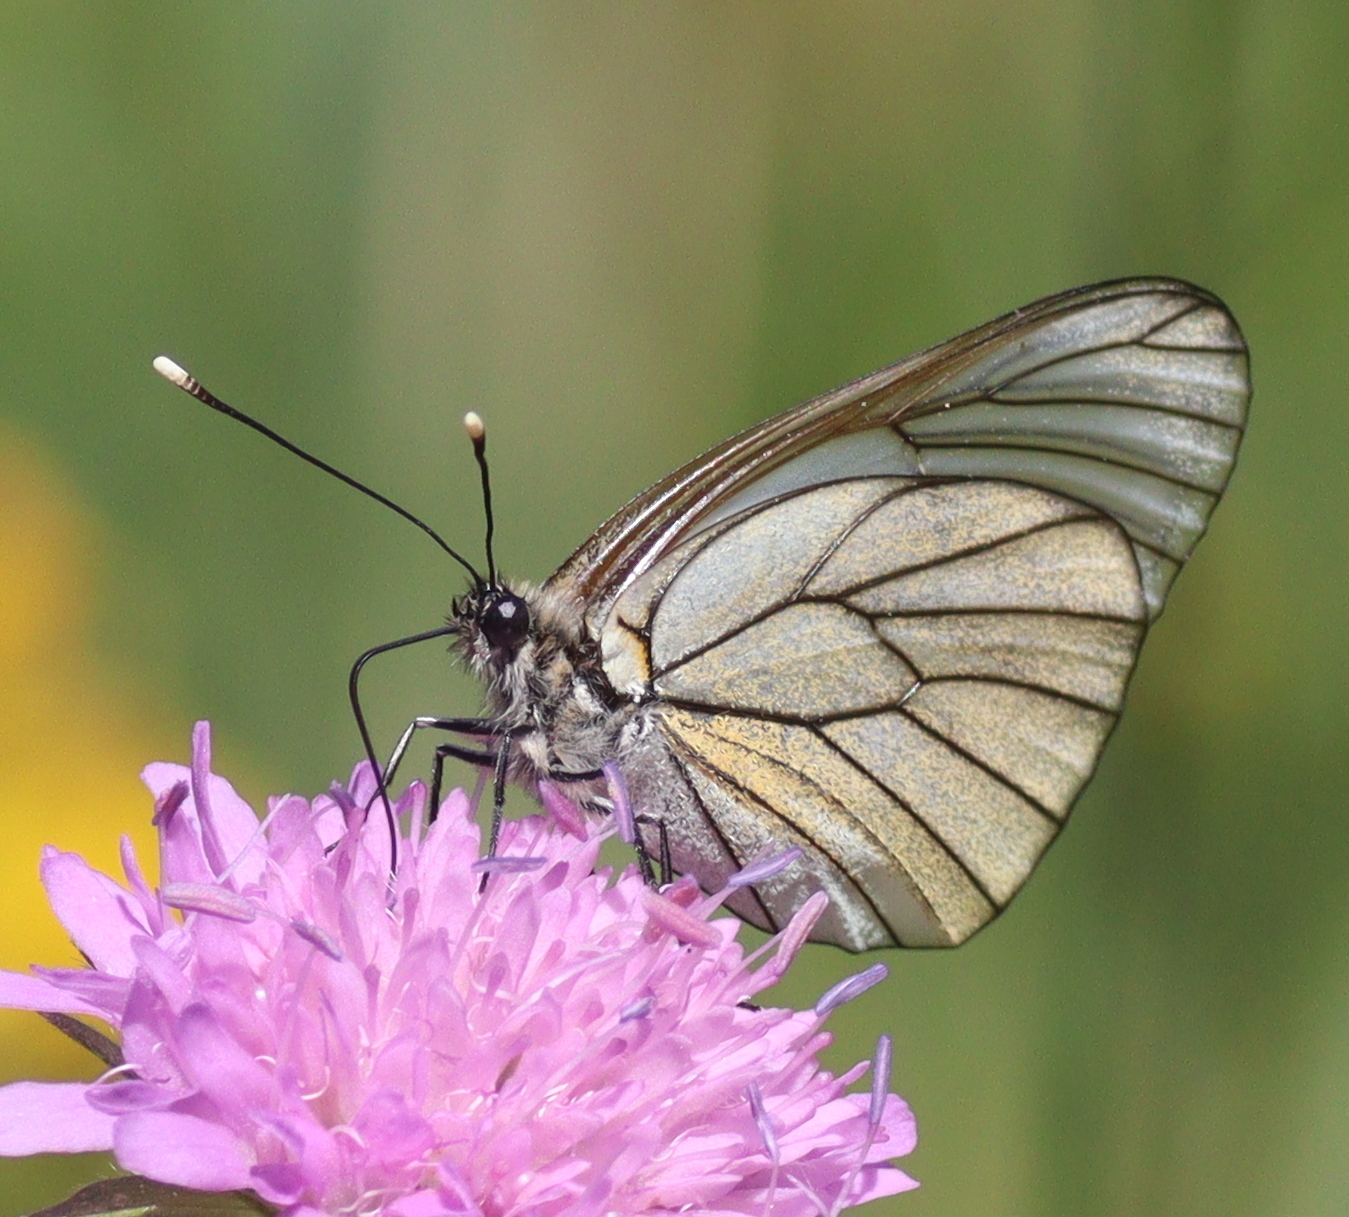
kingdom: Animalia
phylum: Arthropoda
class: Insecta
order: Lepidoptera
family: Pieridae
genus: Aporia
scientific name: Aporia crataegi
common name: Black-veined white
